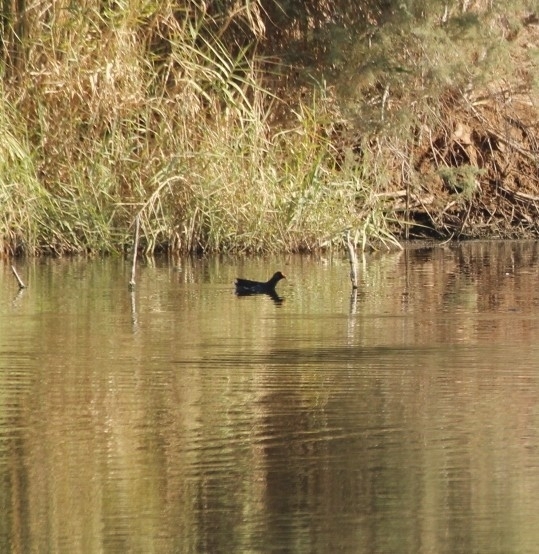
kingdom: Animalia
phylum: Chordata
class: Aves
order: Gruiformes
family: Rallidae
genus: Gallinula
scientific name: Gallinula chloropus
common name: Common moorhen
